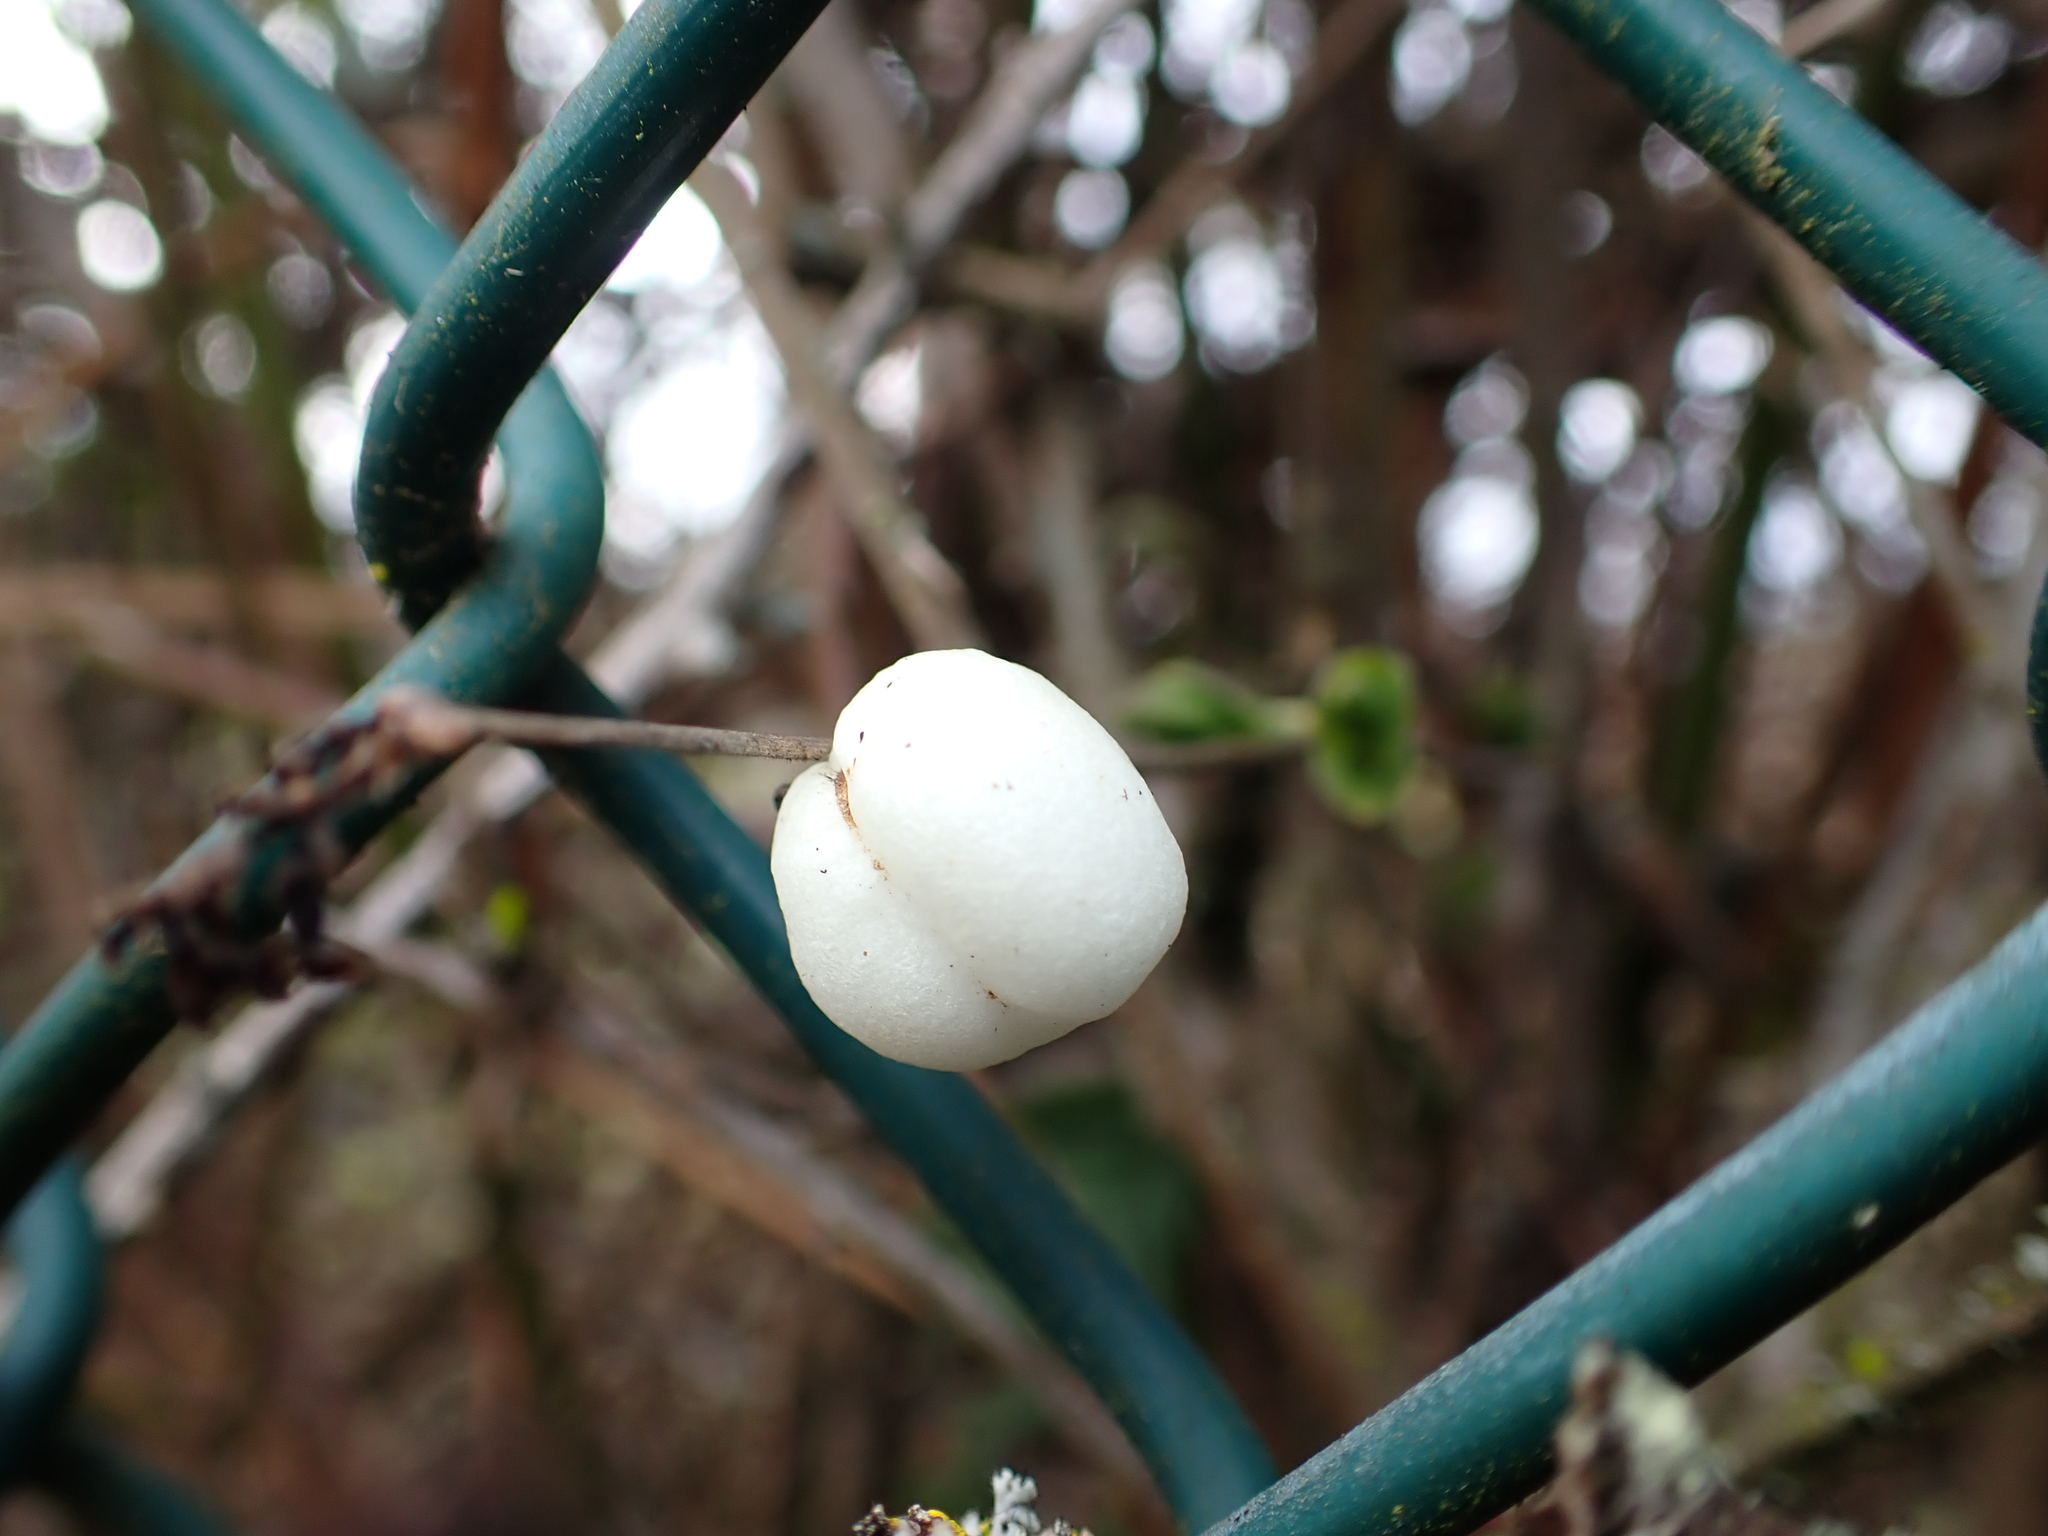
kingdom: Plantae
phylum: Tracheophyta
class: Magnoliopsida
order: Dipsacales
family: Caprifoliaceae
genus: Symphoricarpos
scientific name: Symphoricarpos albus
